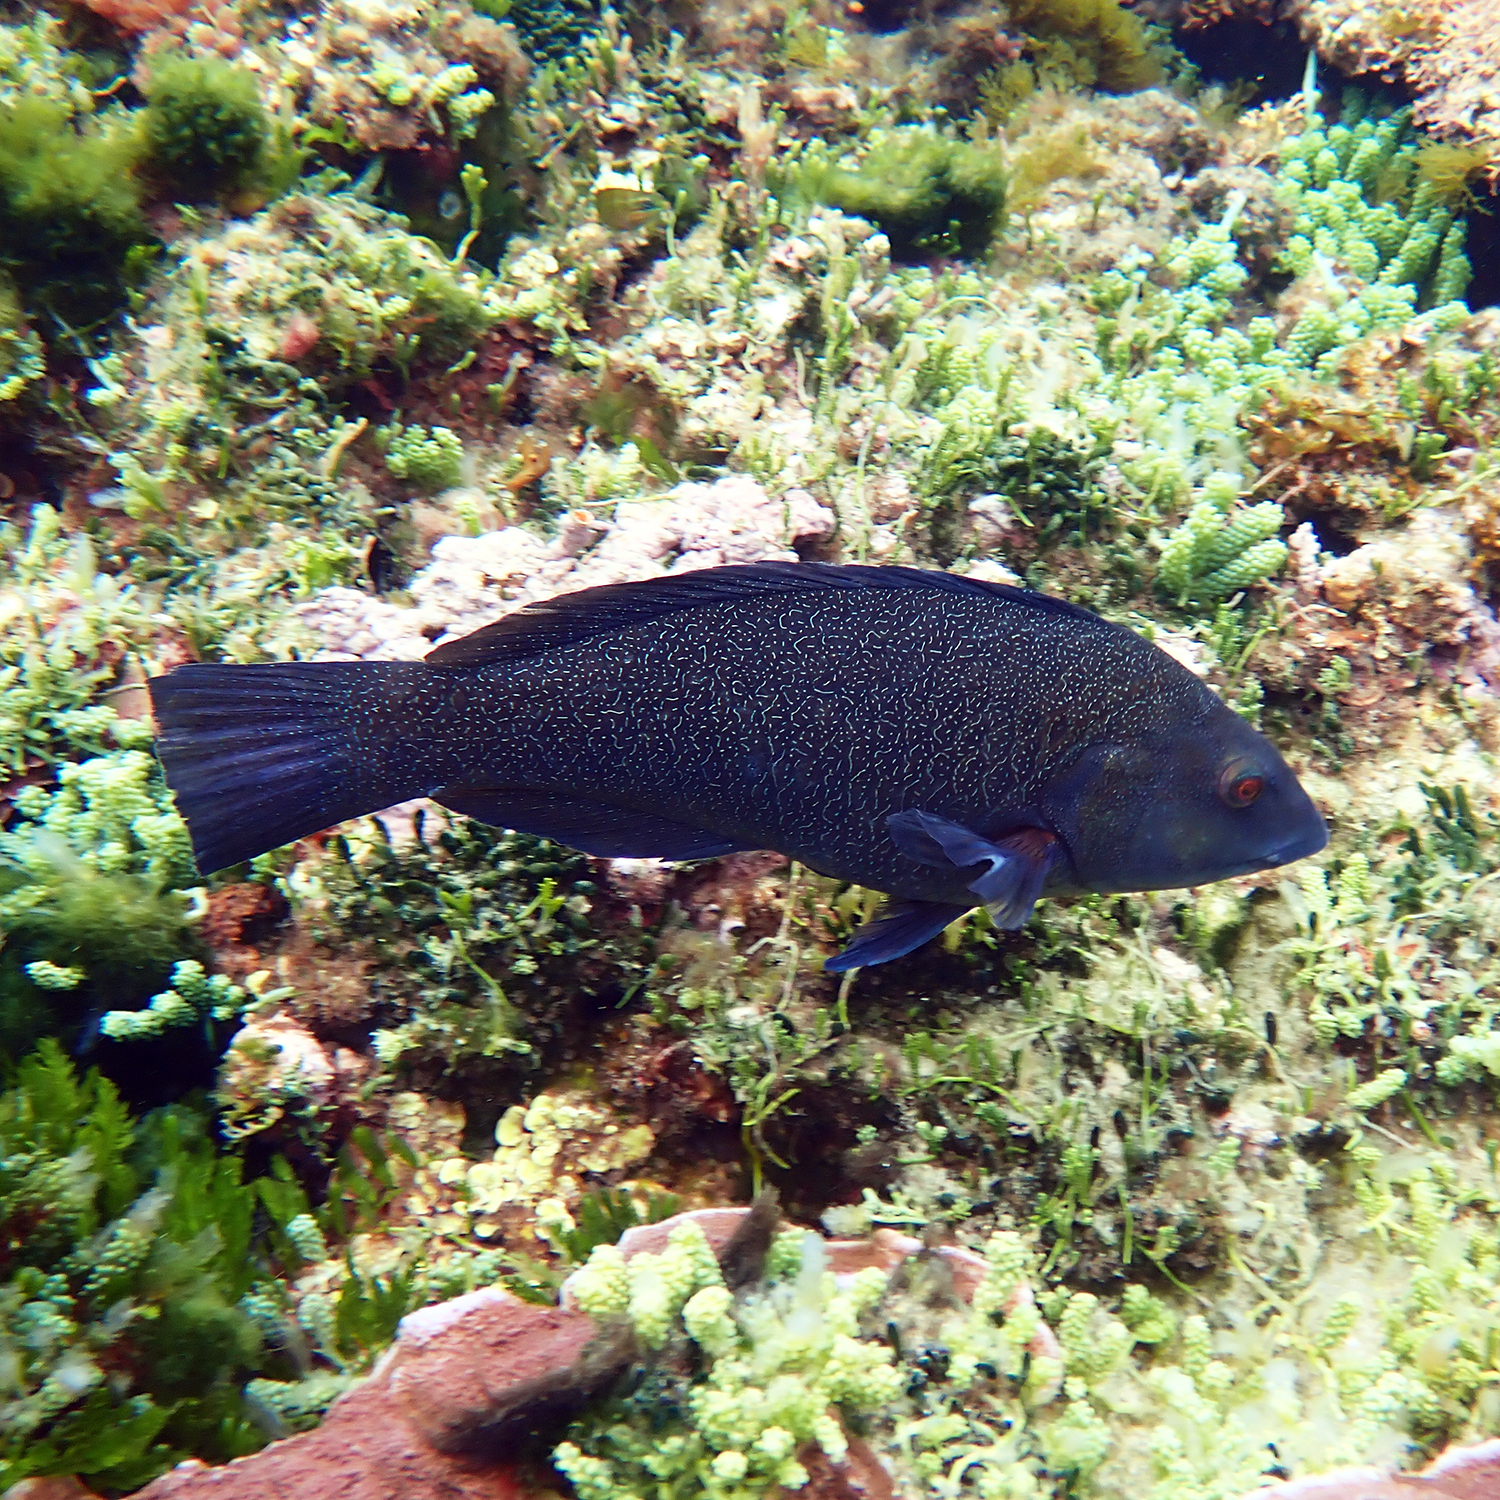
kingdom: Animalia
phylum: Chordata
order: Perciformes
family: Labridae
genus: Notolabrus
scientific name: Notolabrus inscriptus
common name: Green wrasse
